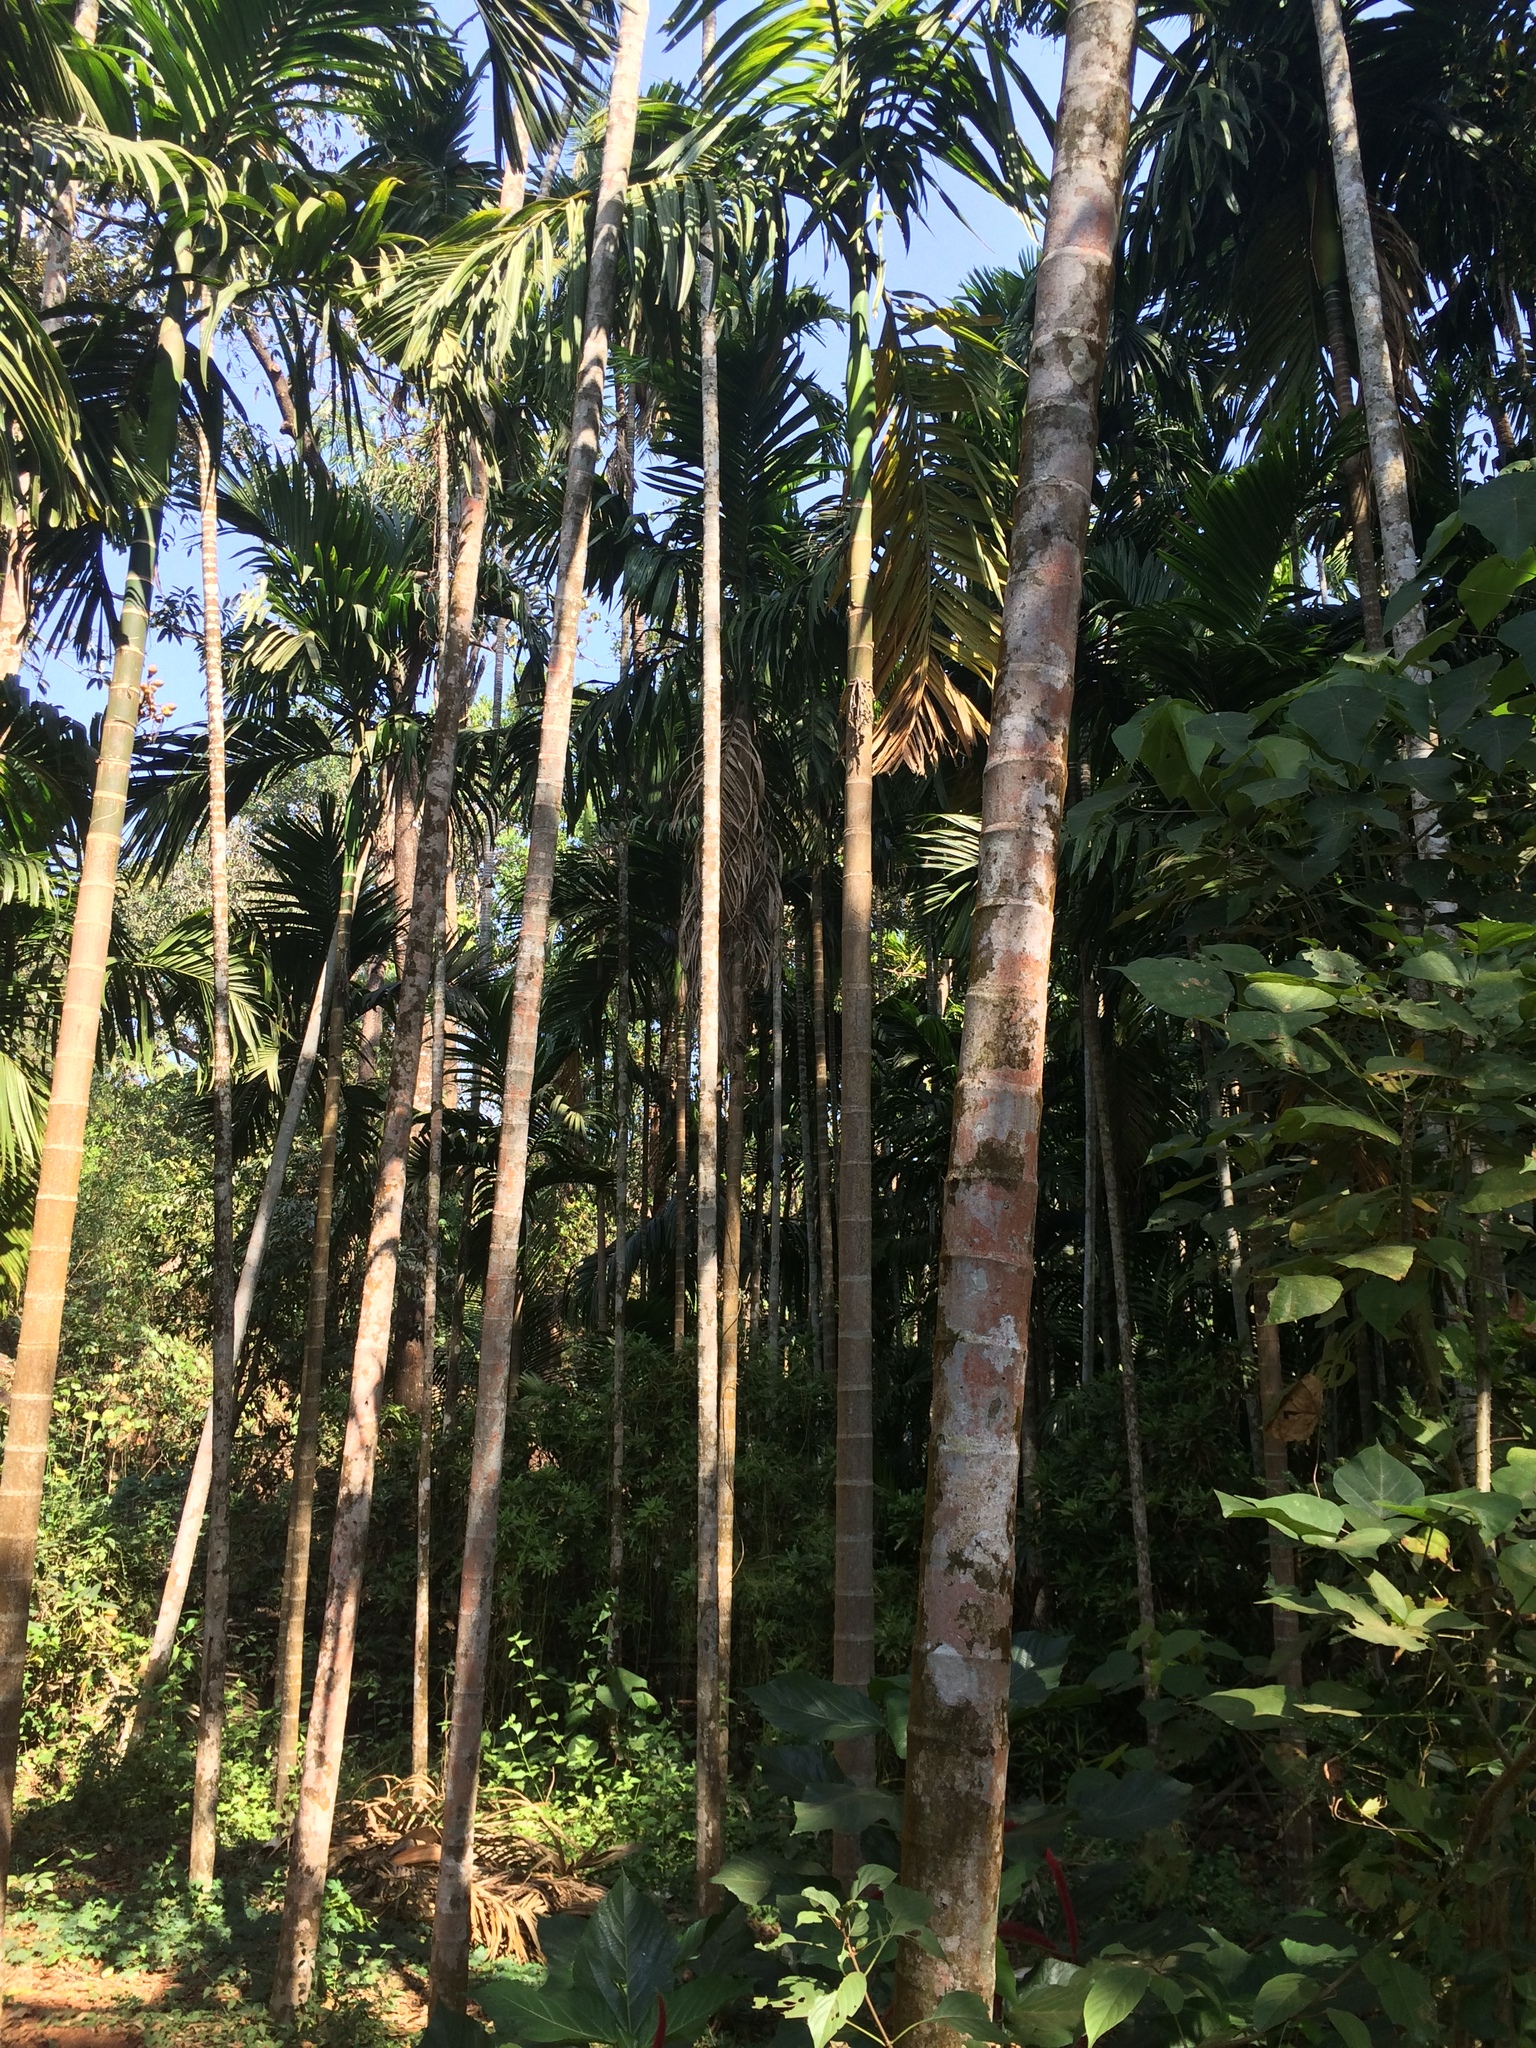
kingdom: Plantae
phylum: Tracheophyta
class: Liliopsida
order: Arecales
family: Arecaceae
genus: Areca
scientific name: Areca catechu
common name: Indian-nut
